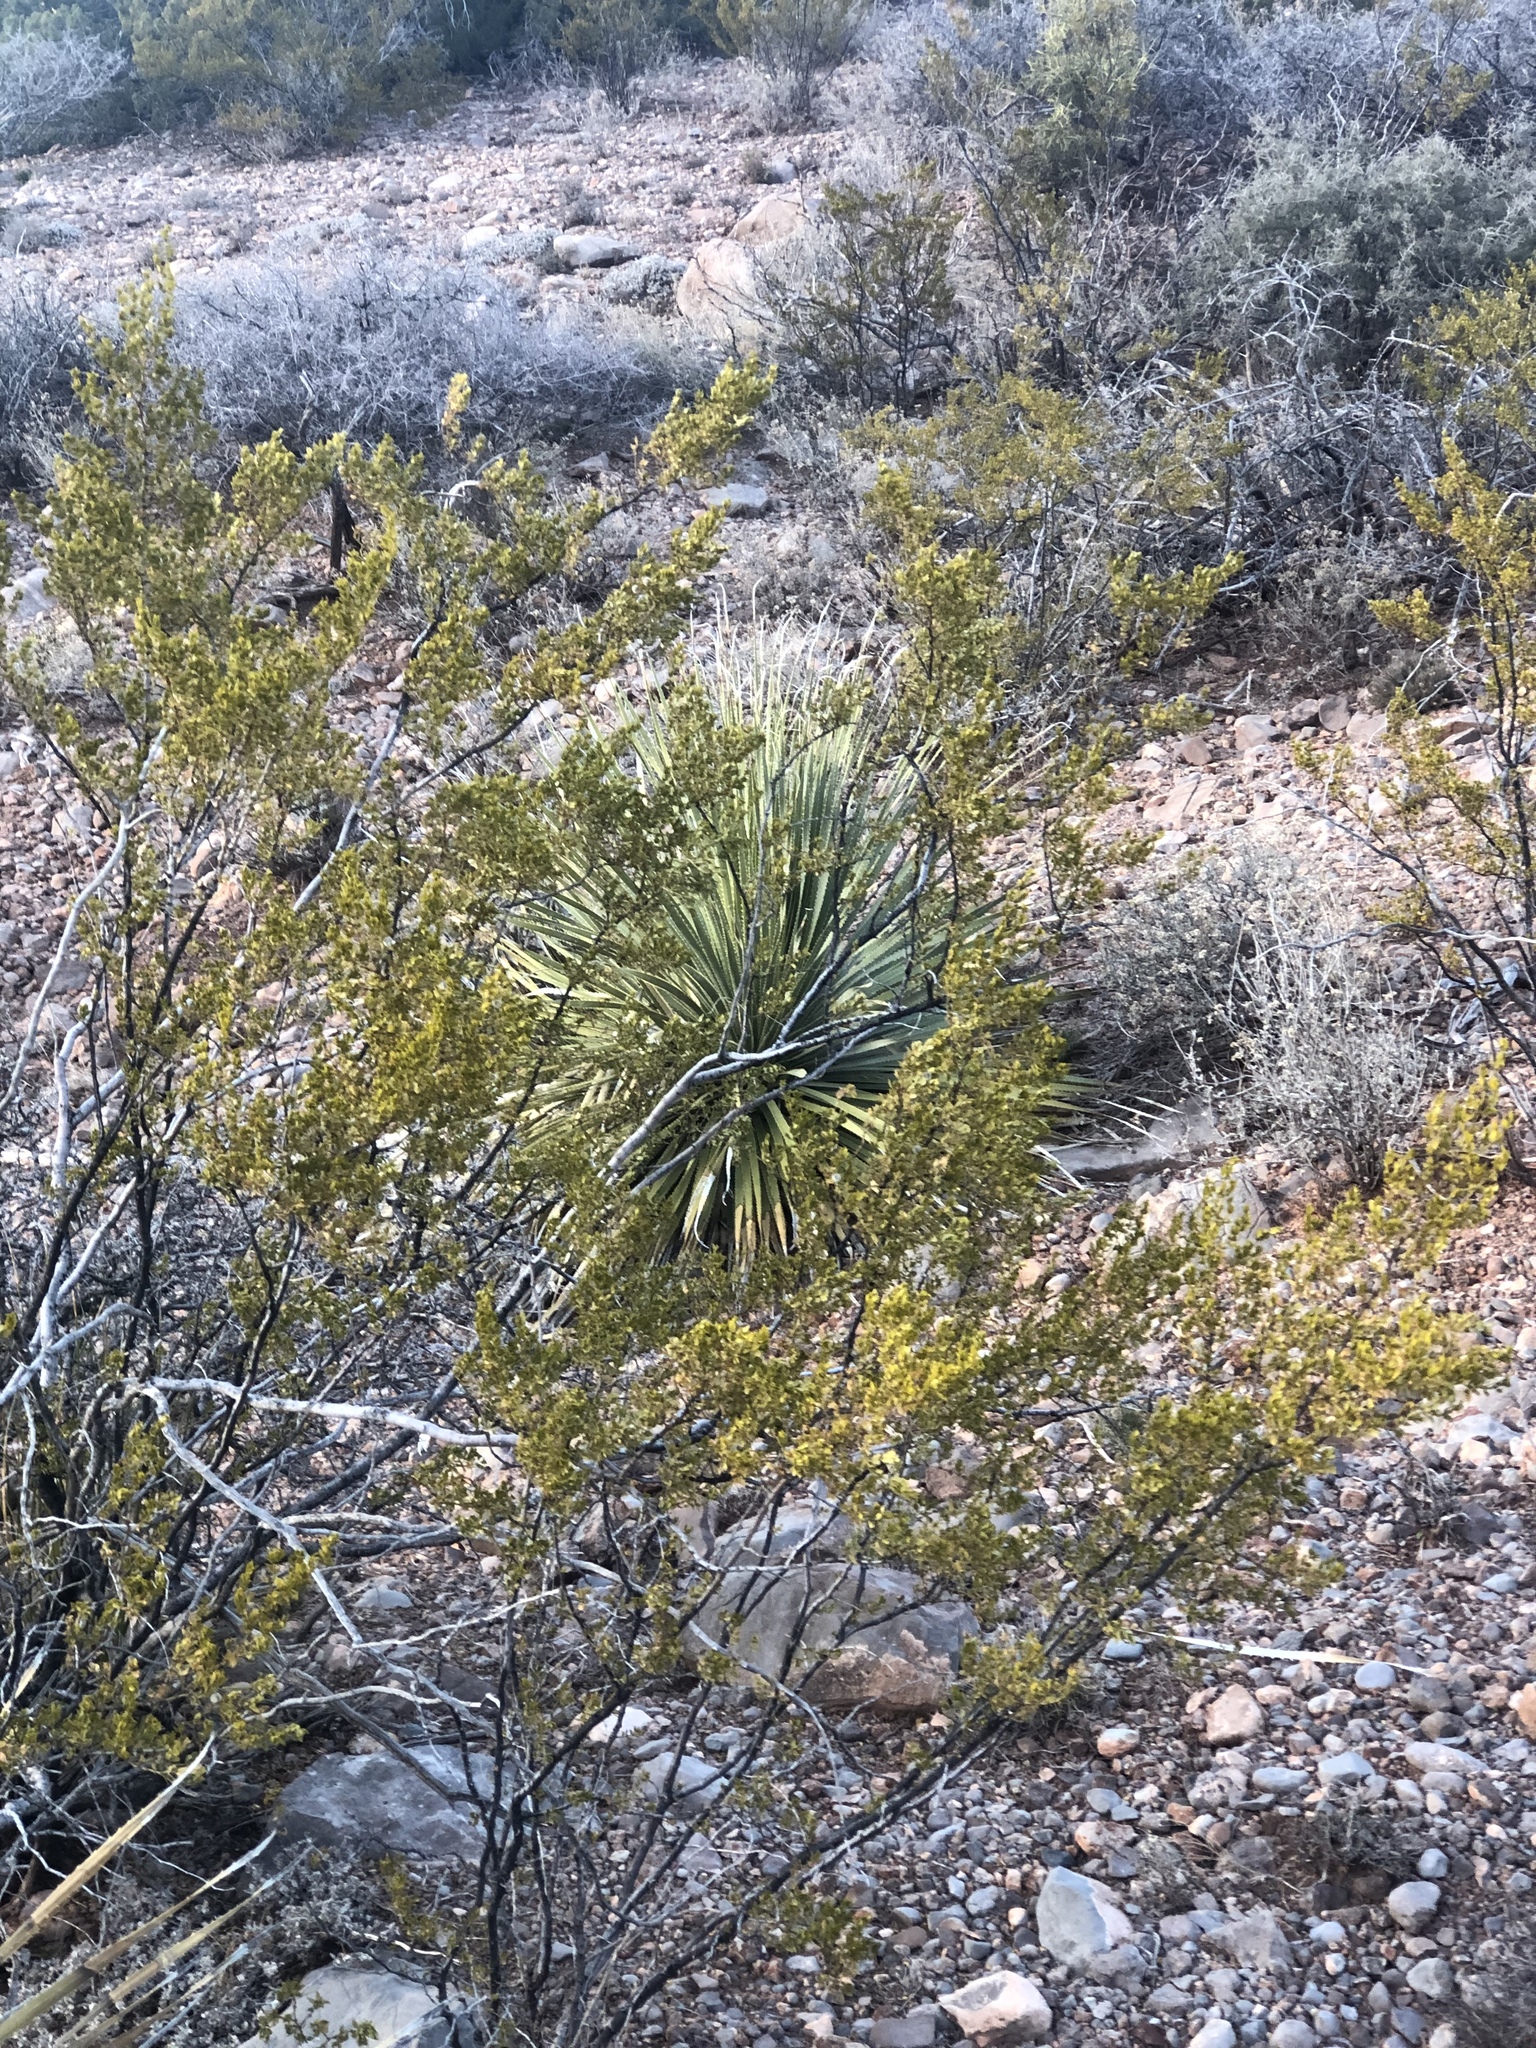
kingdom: Plantae
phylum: Tracheophyta
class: Magnoliopsida
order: Zygophyllales
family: Zygophyllaceae
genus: Larrea
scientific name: Larrea tridentata
